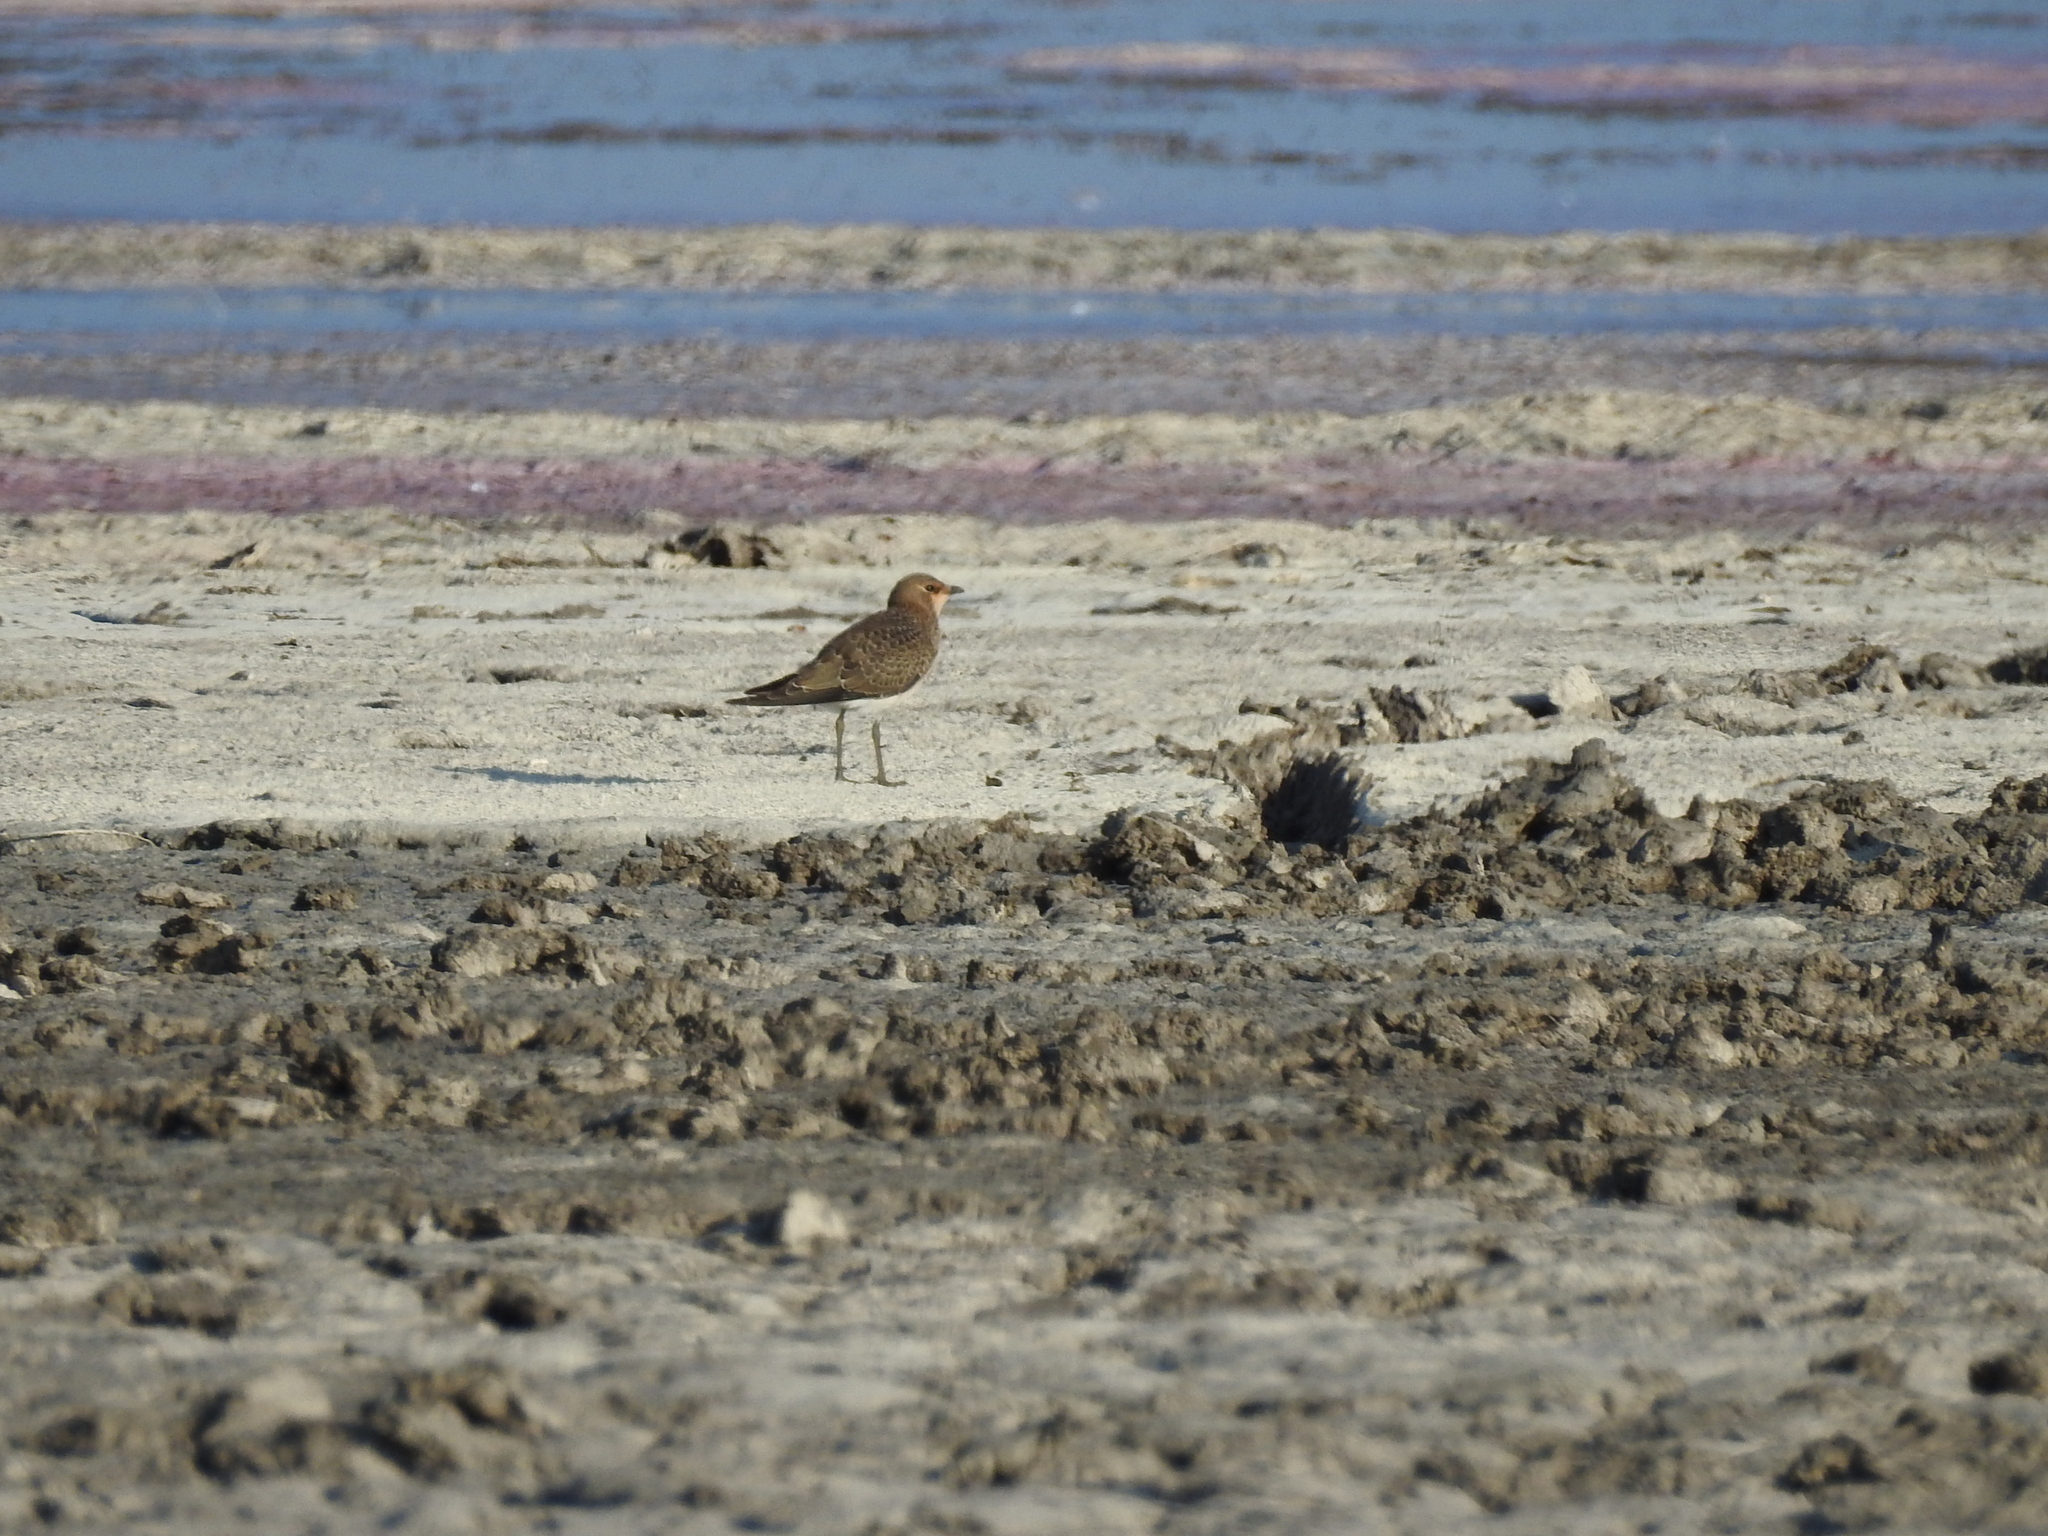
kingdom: Animalia
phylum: Chordata
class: Aves
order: Charadriiformes
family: Glareolidae
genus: Glareola
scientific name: Glareola nordmanni
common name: Black-winged pratincole
